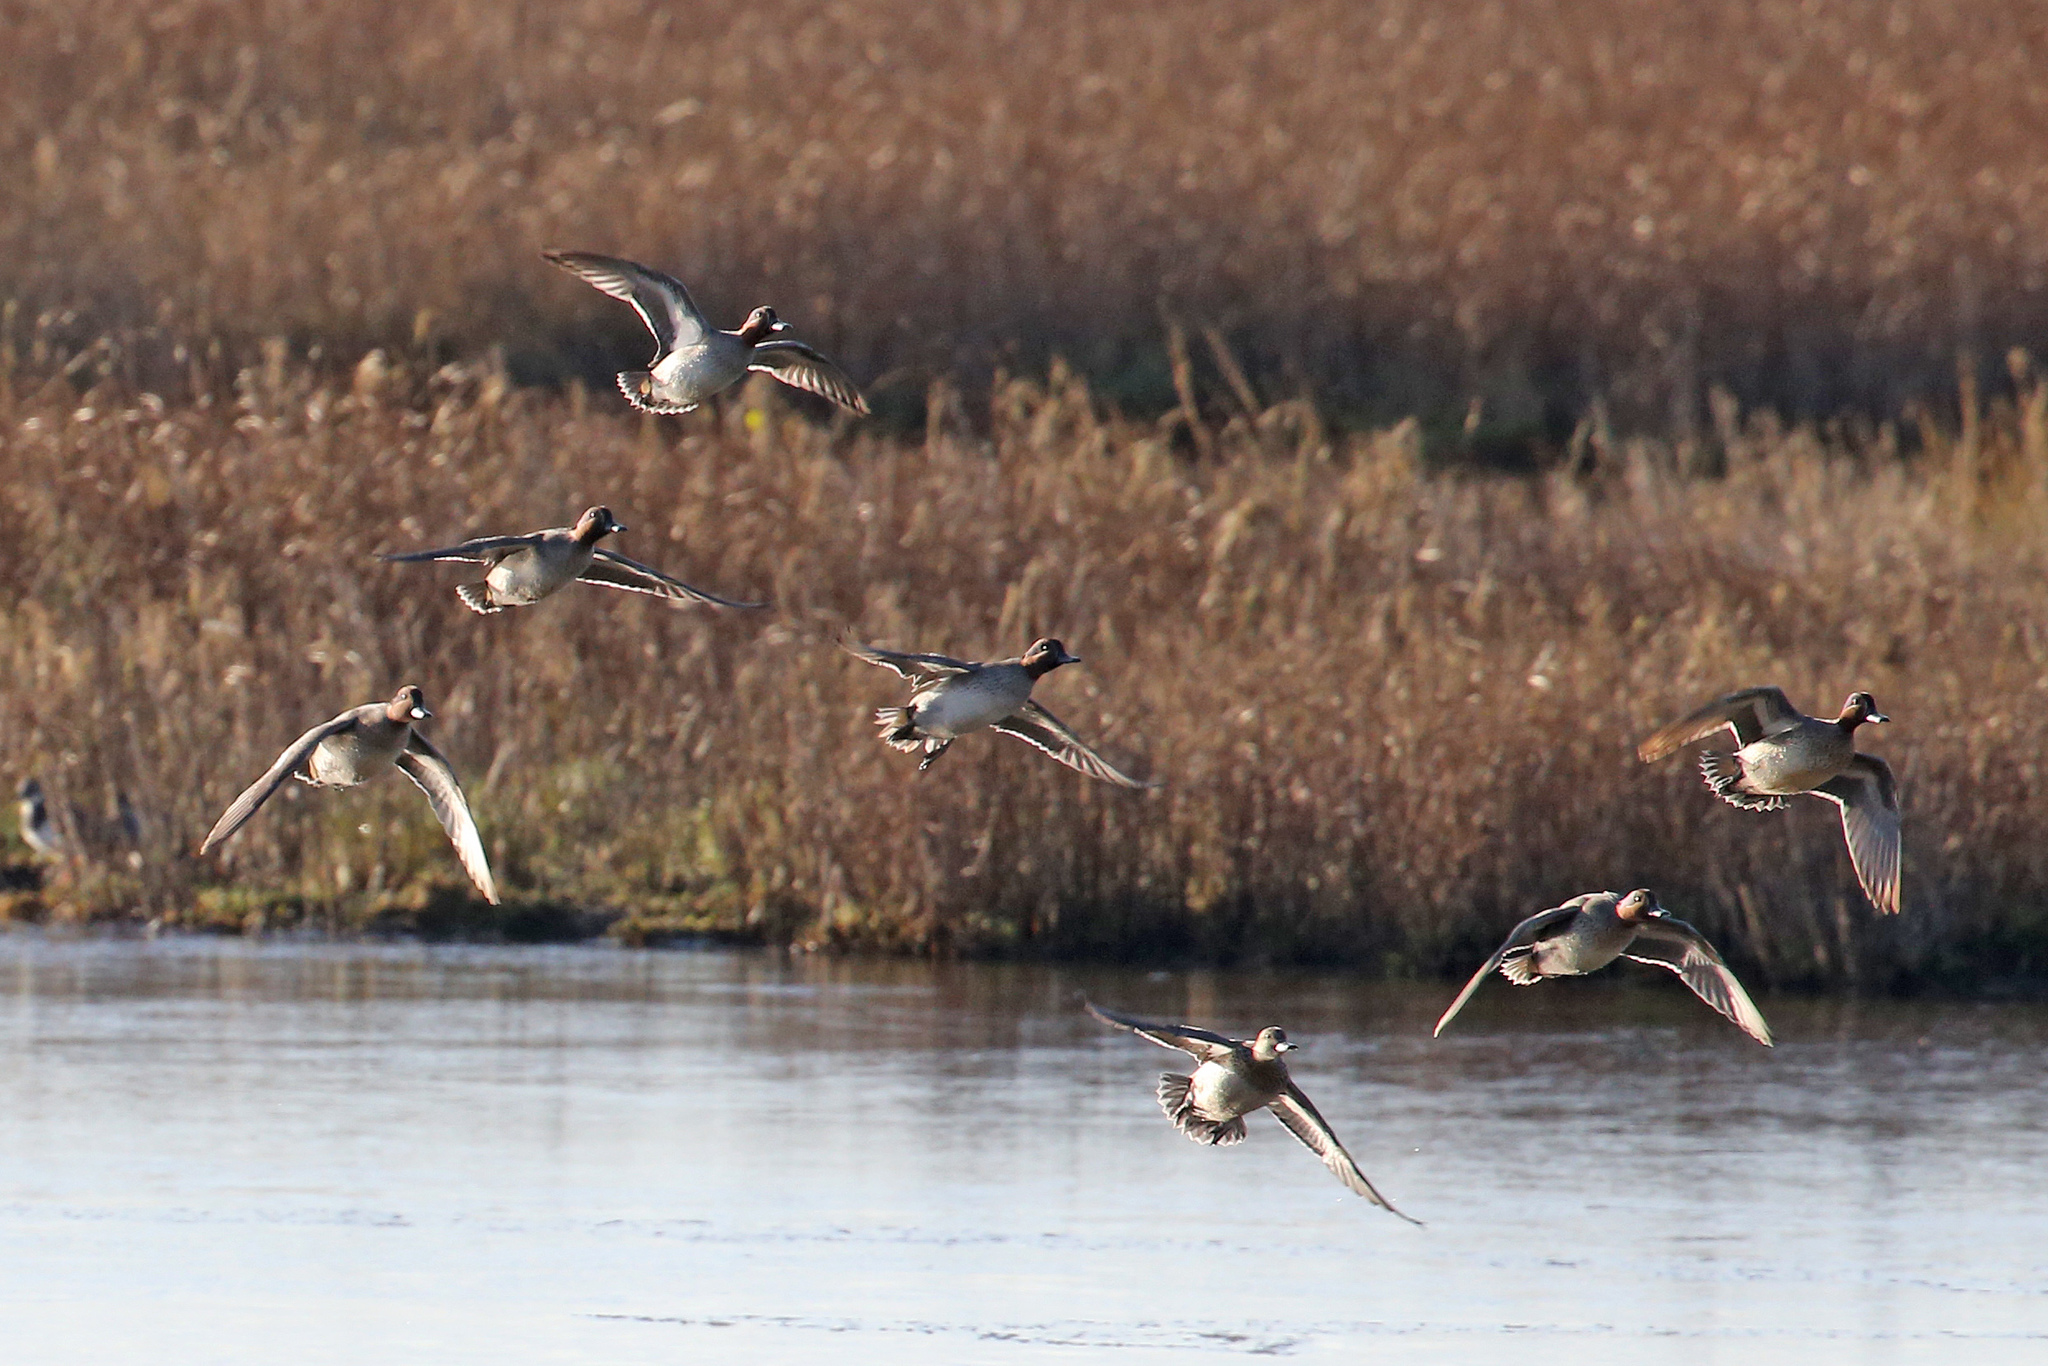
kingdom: Animalia
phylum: Chordata
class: Aves
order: Anseriformes
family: Anatidae
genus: Anas
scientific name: Anas crecca
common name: Eurasian teal
